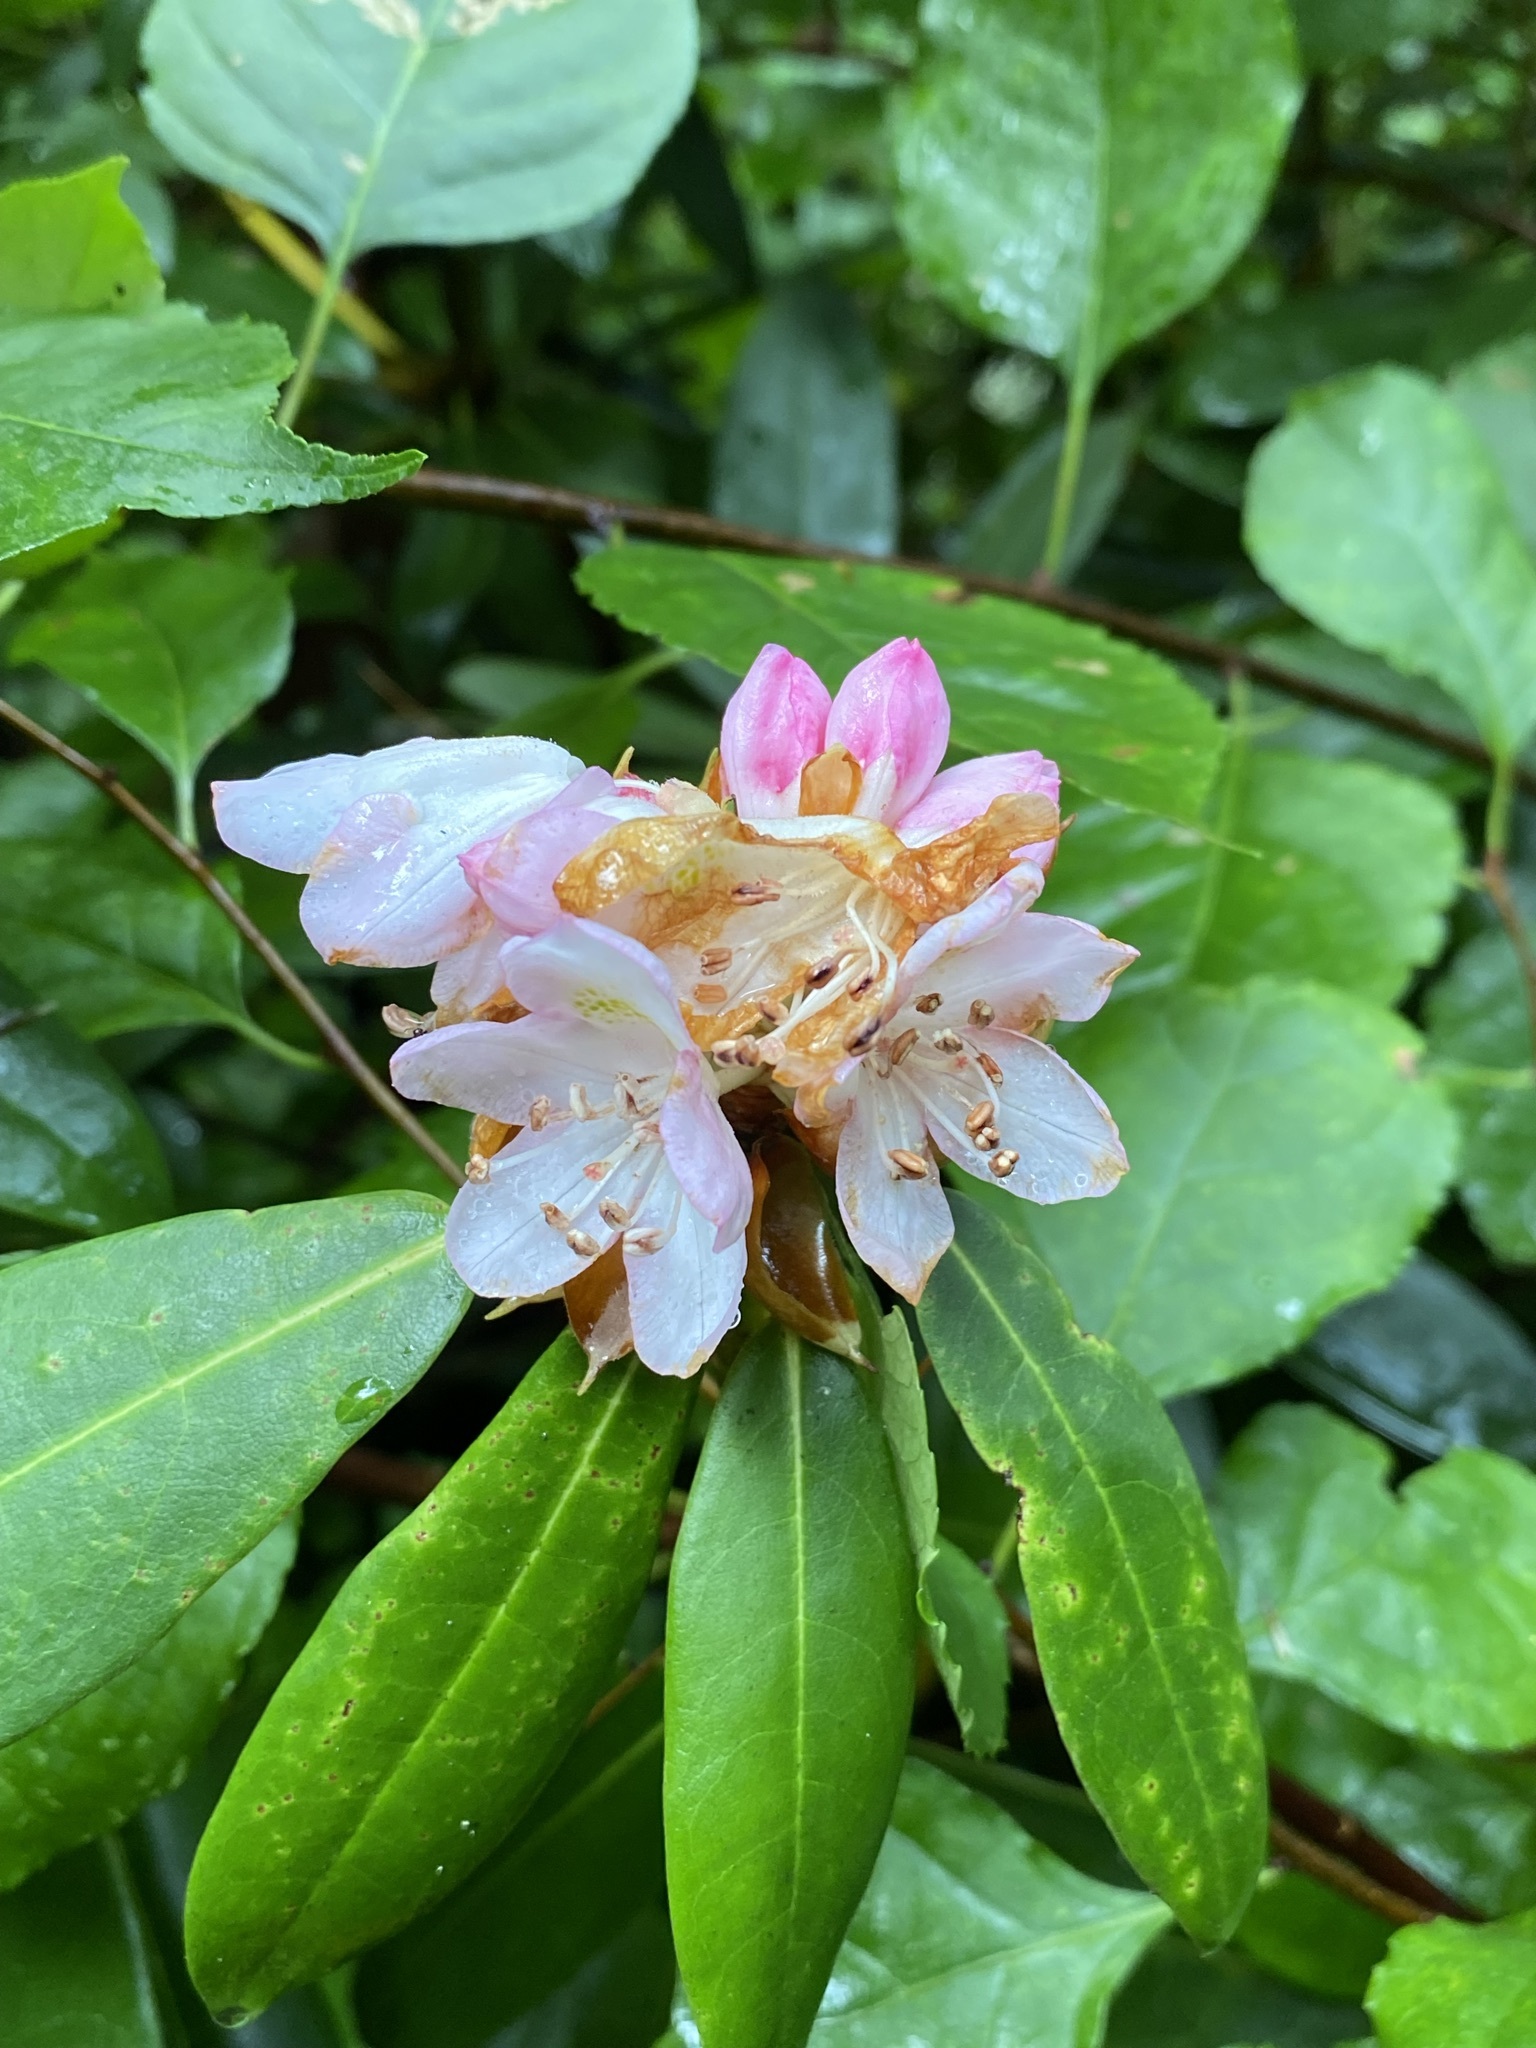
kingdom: Plantae
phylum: Tracheophyta
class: Magnoliopsida
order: Ericales
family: Ericaceae
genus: Rhododendron
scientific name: Rhododendron maximum
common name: Great rhododendron
